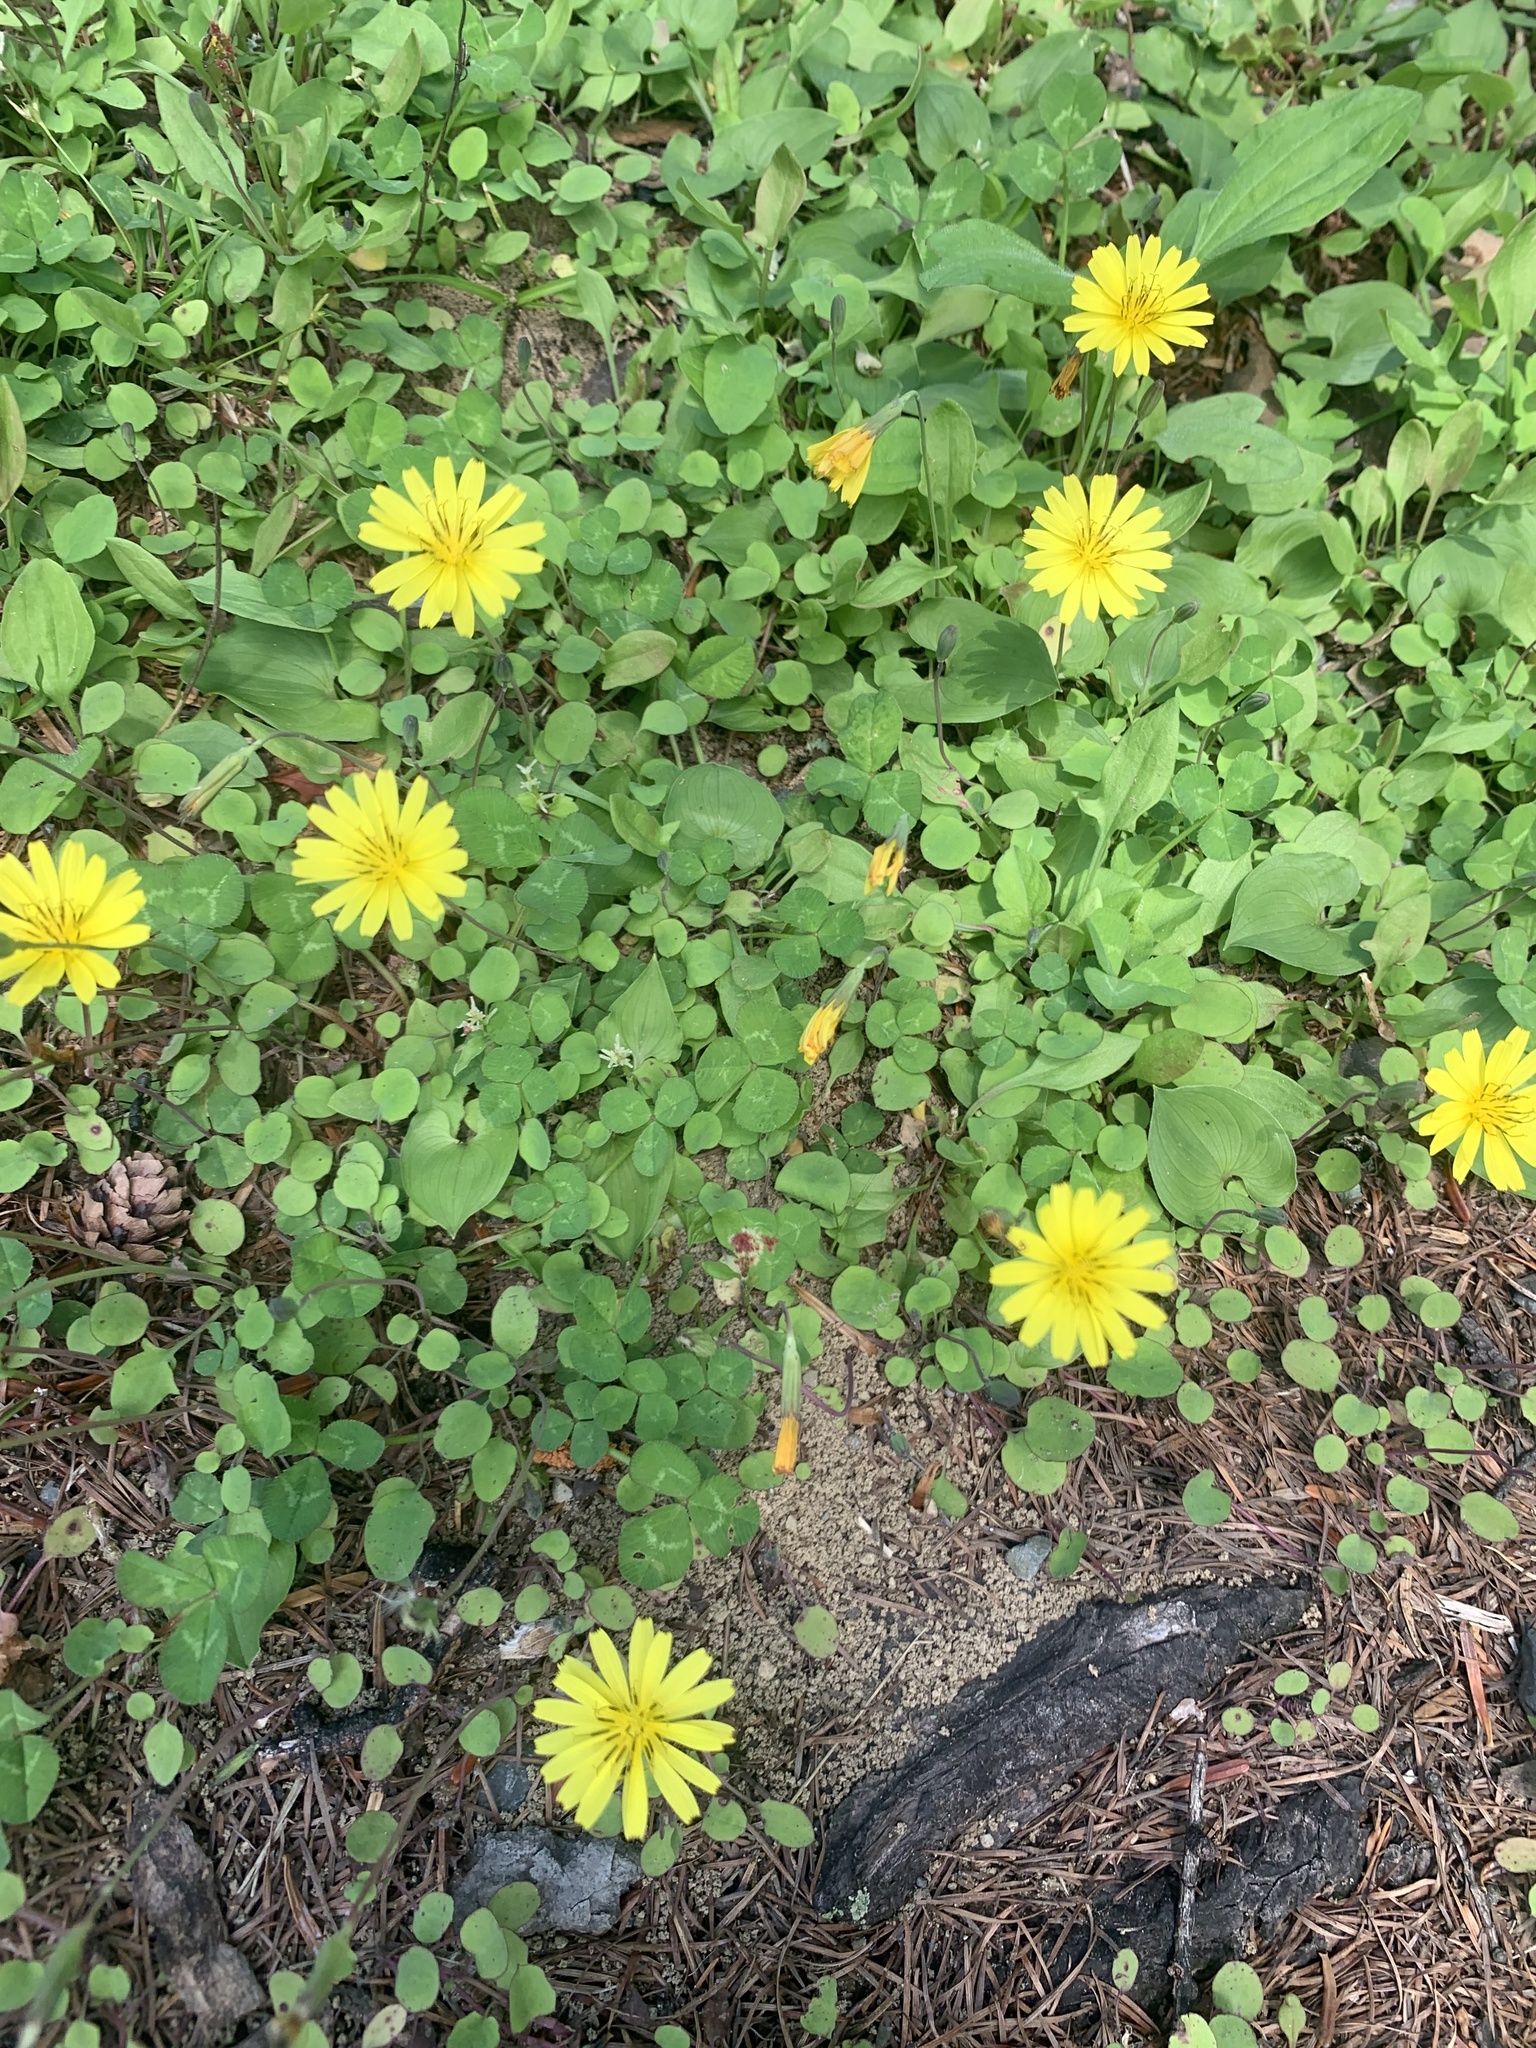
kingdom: Plantae
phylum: Tracheophyta
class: Magnoliopsida
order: Asterales
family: Asteraceae
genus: Ixeris
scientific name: Ixeris stolonifera
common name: Creeping lettuce
